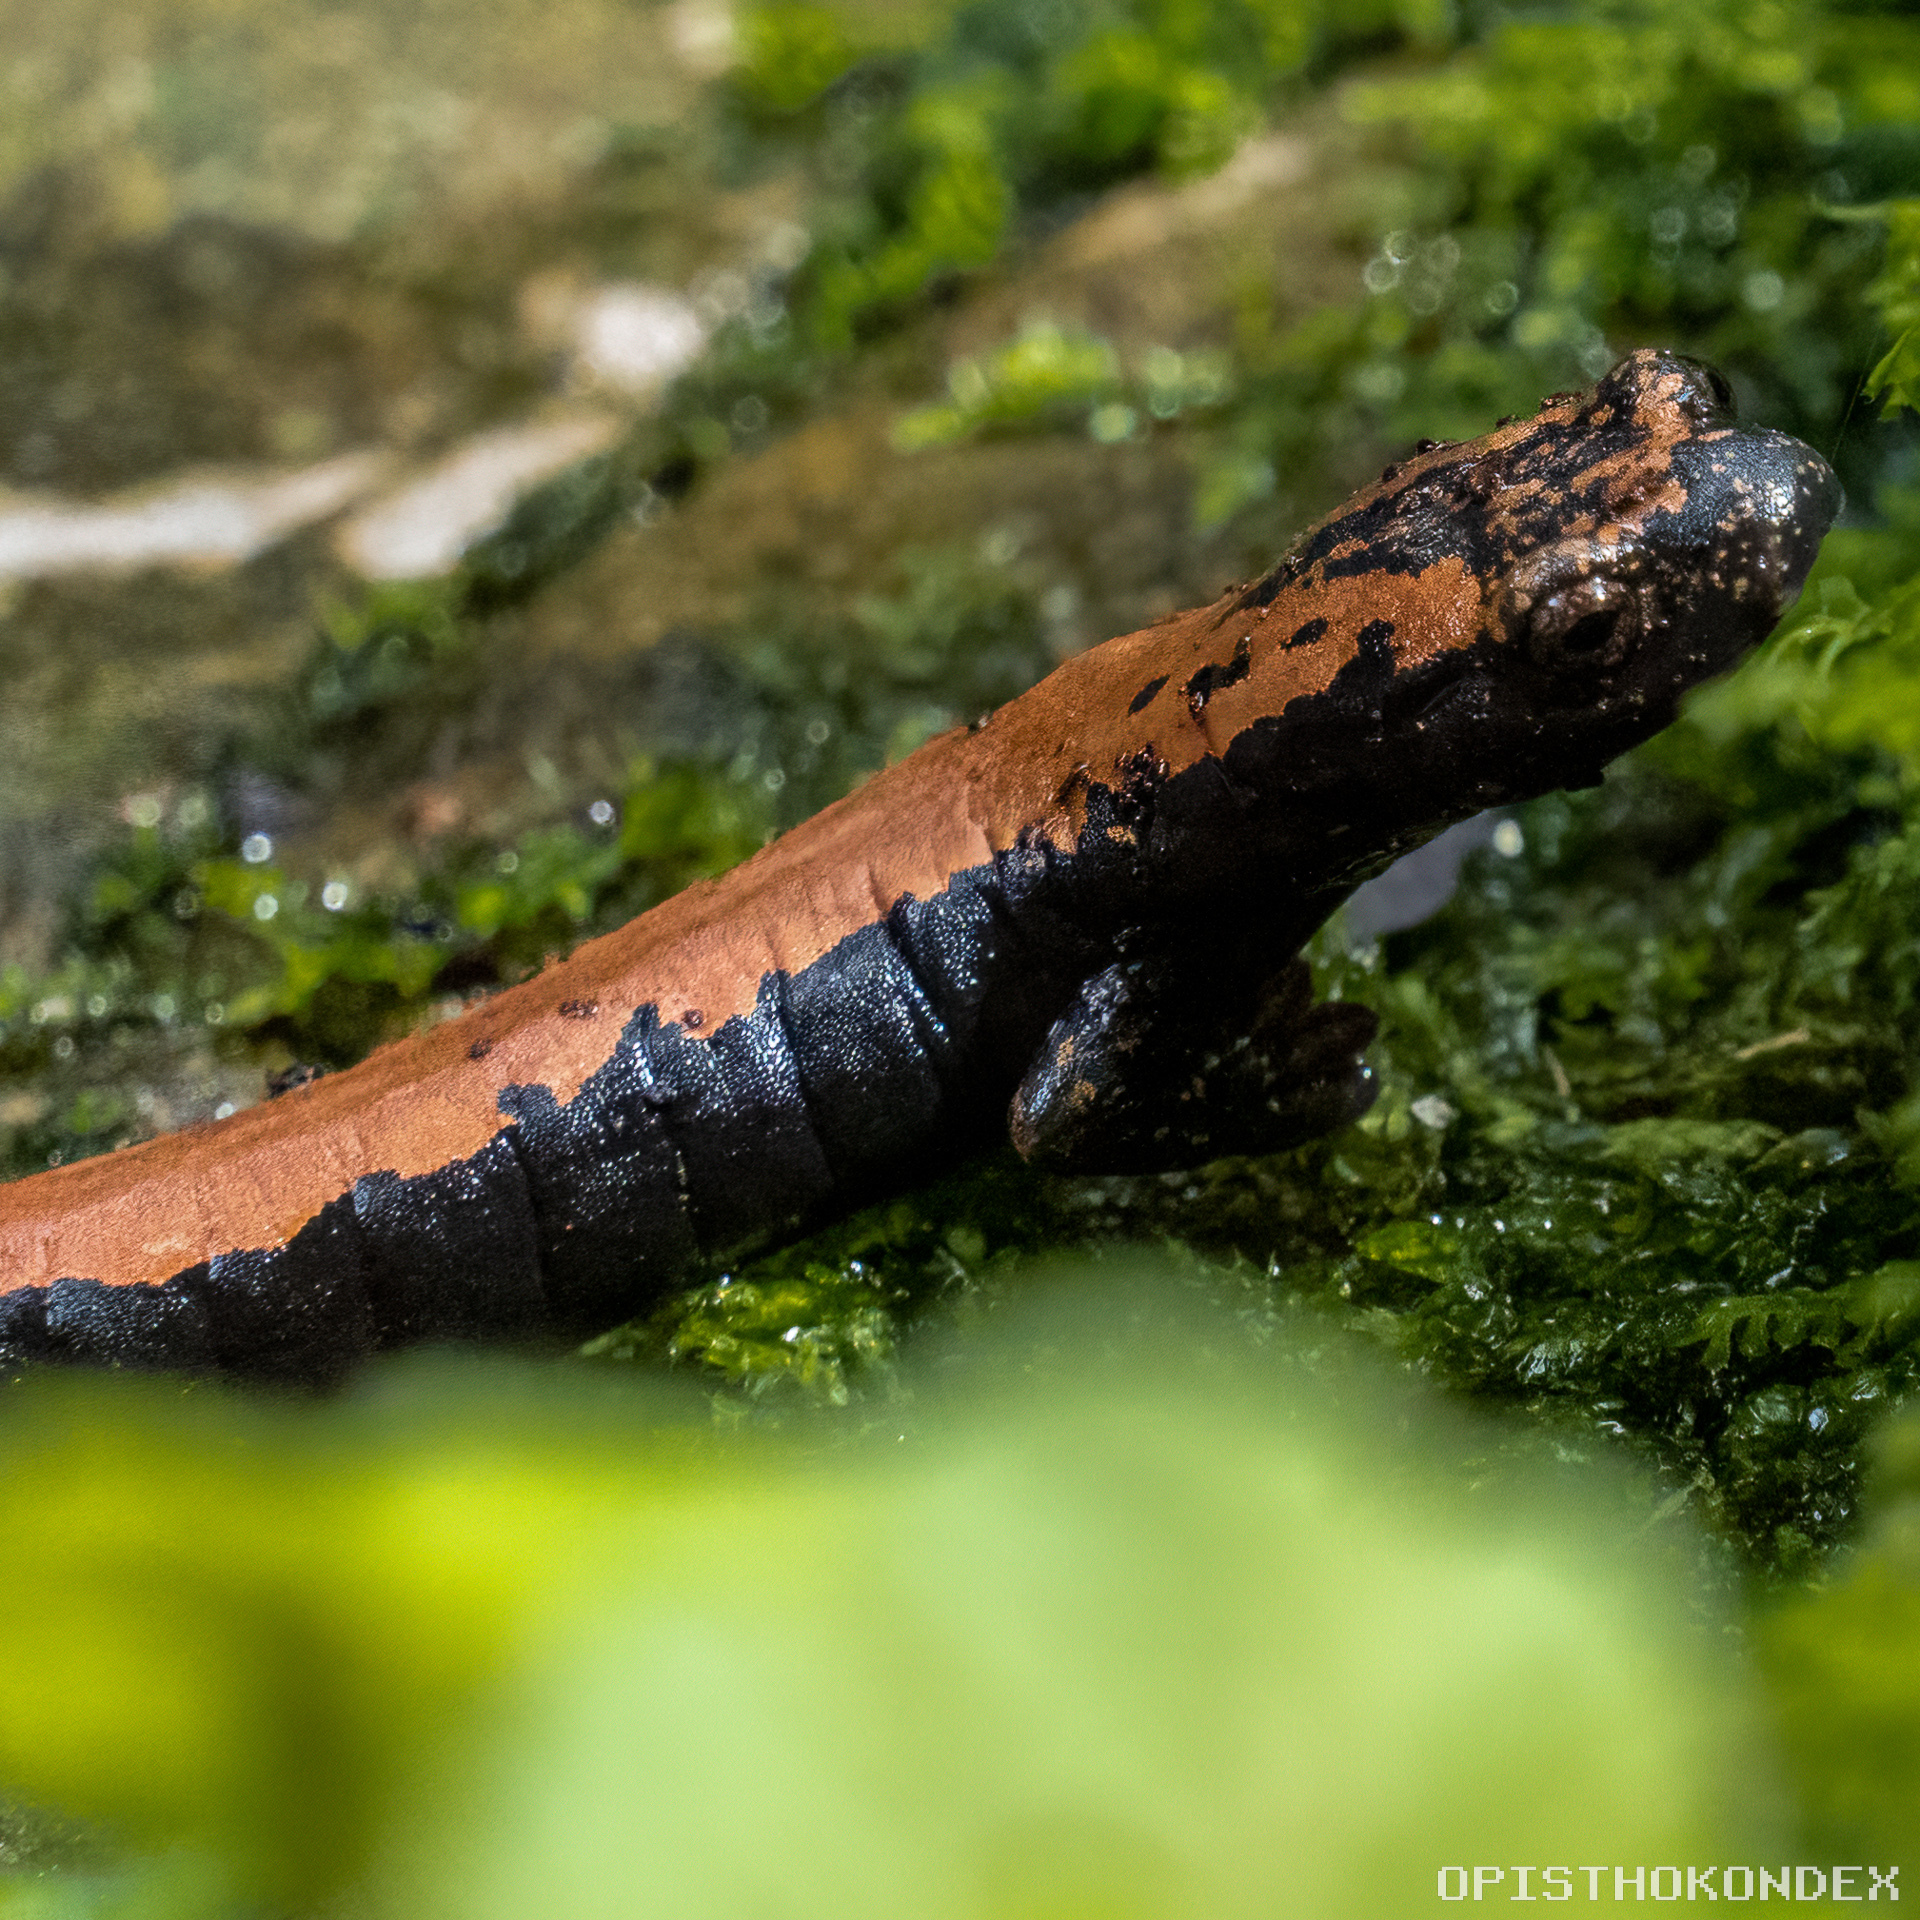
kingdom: Animalia
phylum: Chordata
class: Amphibia
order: Caudata
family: Plethodontidae
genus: Bolitoglossa
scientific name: Bolitoglossa platydactyla
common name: Broad-footed salamander
